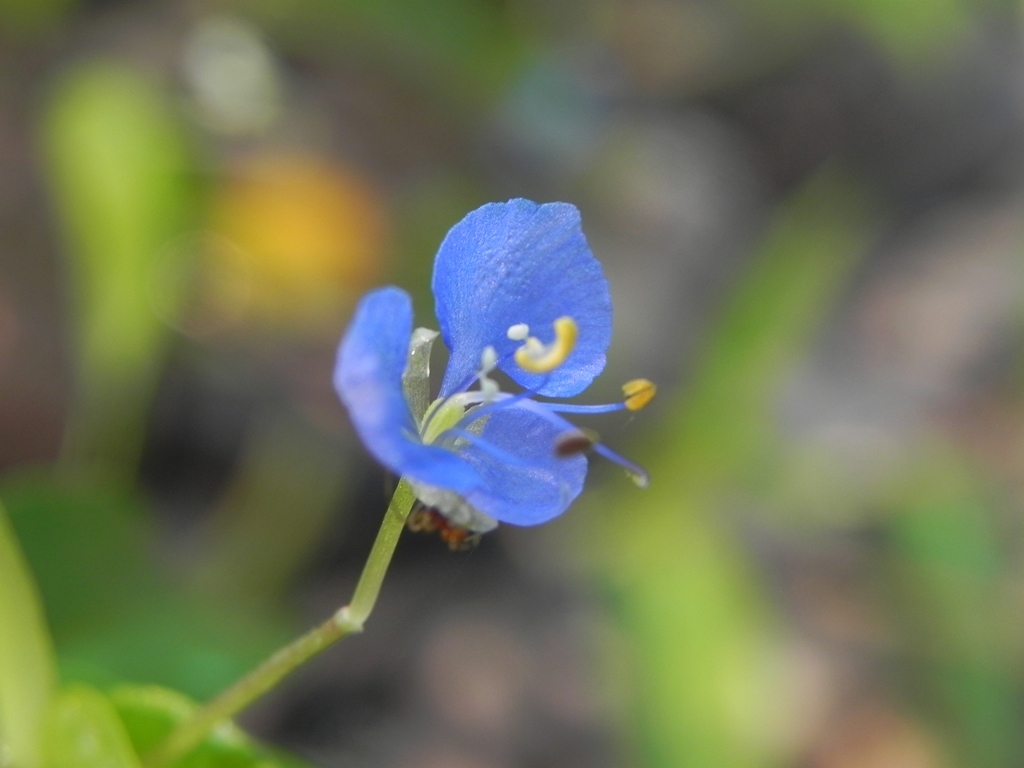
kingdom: Plantae
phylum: Tracheophyta
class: Liliopsida
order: Commelinales
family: Commelinaceae
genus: Commelina
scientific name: Commelina diffusa
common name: Climbing dayflower
